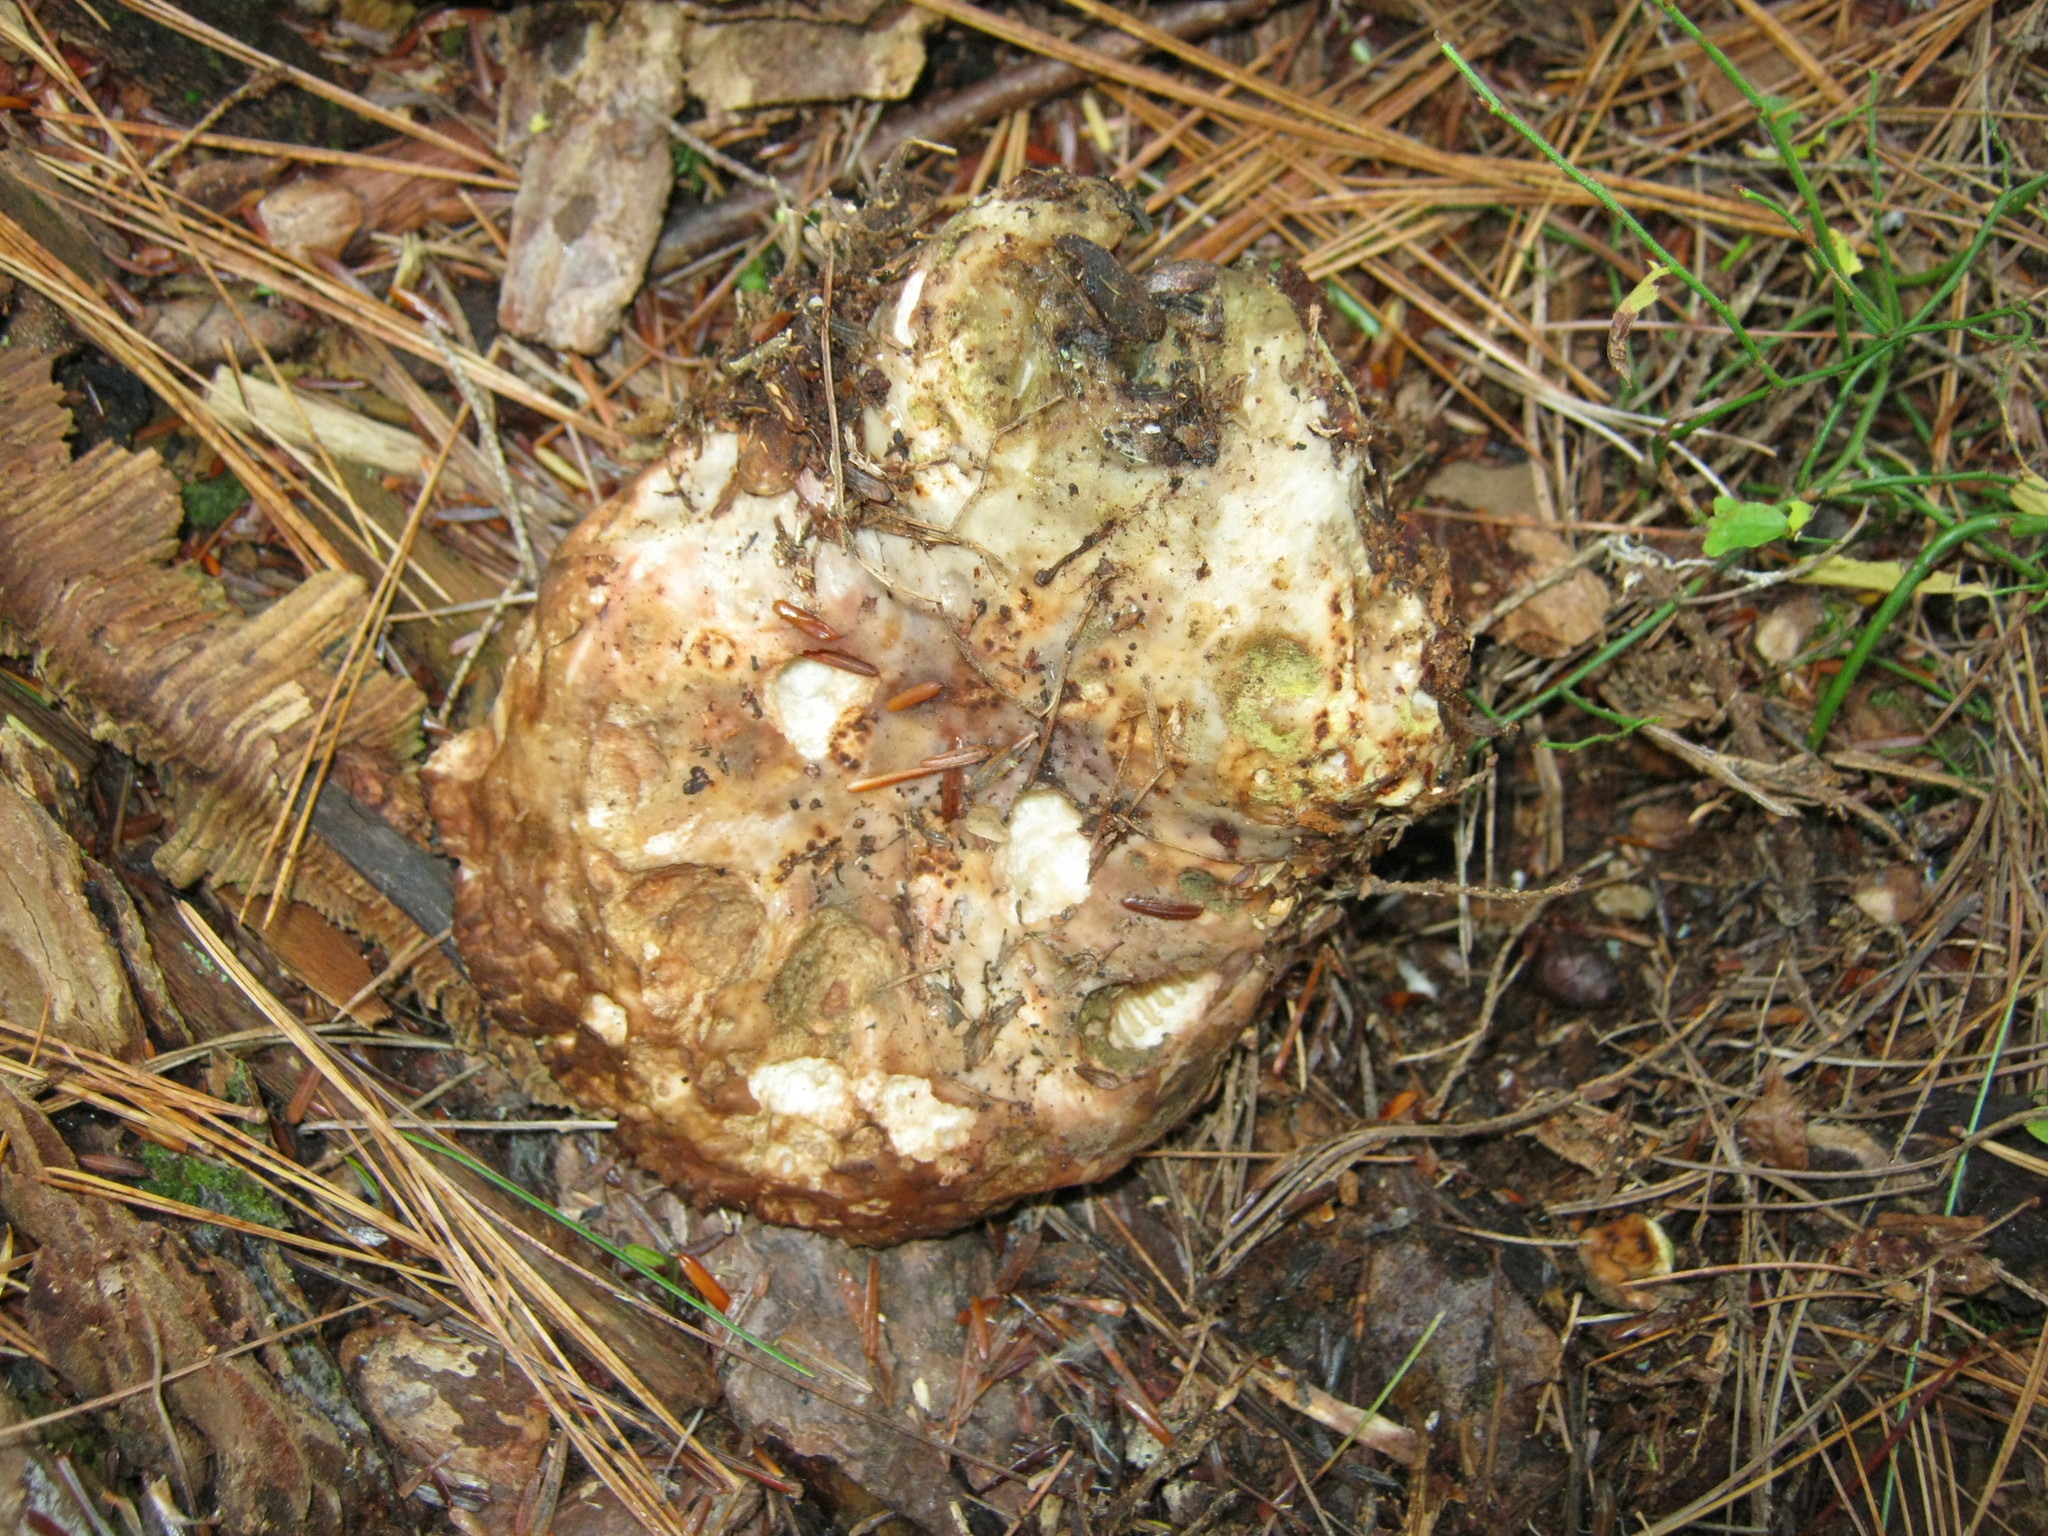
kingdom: Fungi
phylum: Ascomycota
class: Sordariomycetes
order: Hypocreales
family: Hypocreaceae
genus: Hypomyces
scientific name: Hypomyces luteovirens
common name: Yellow-green russula mold
